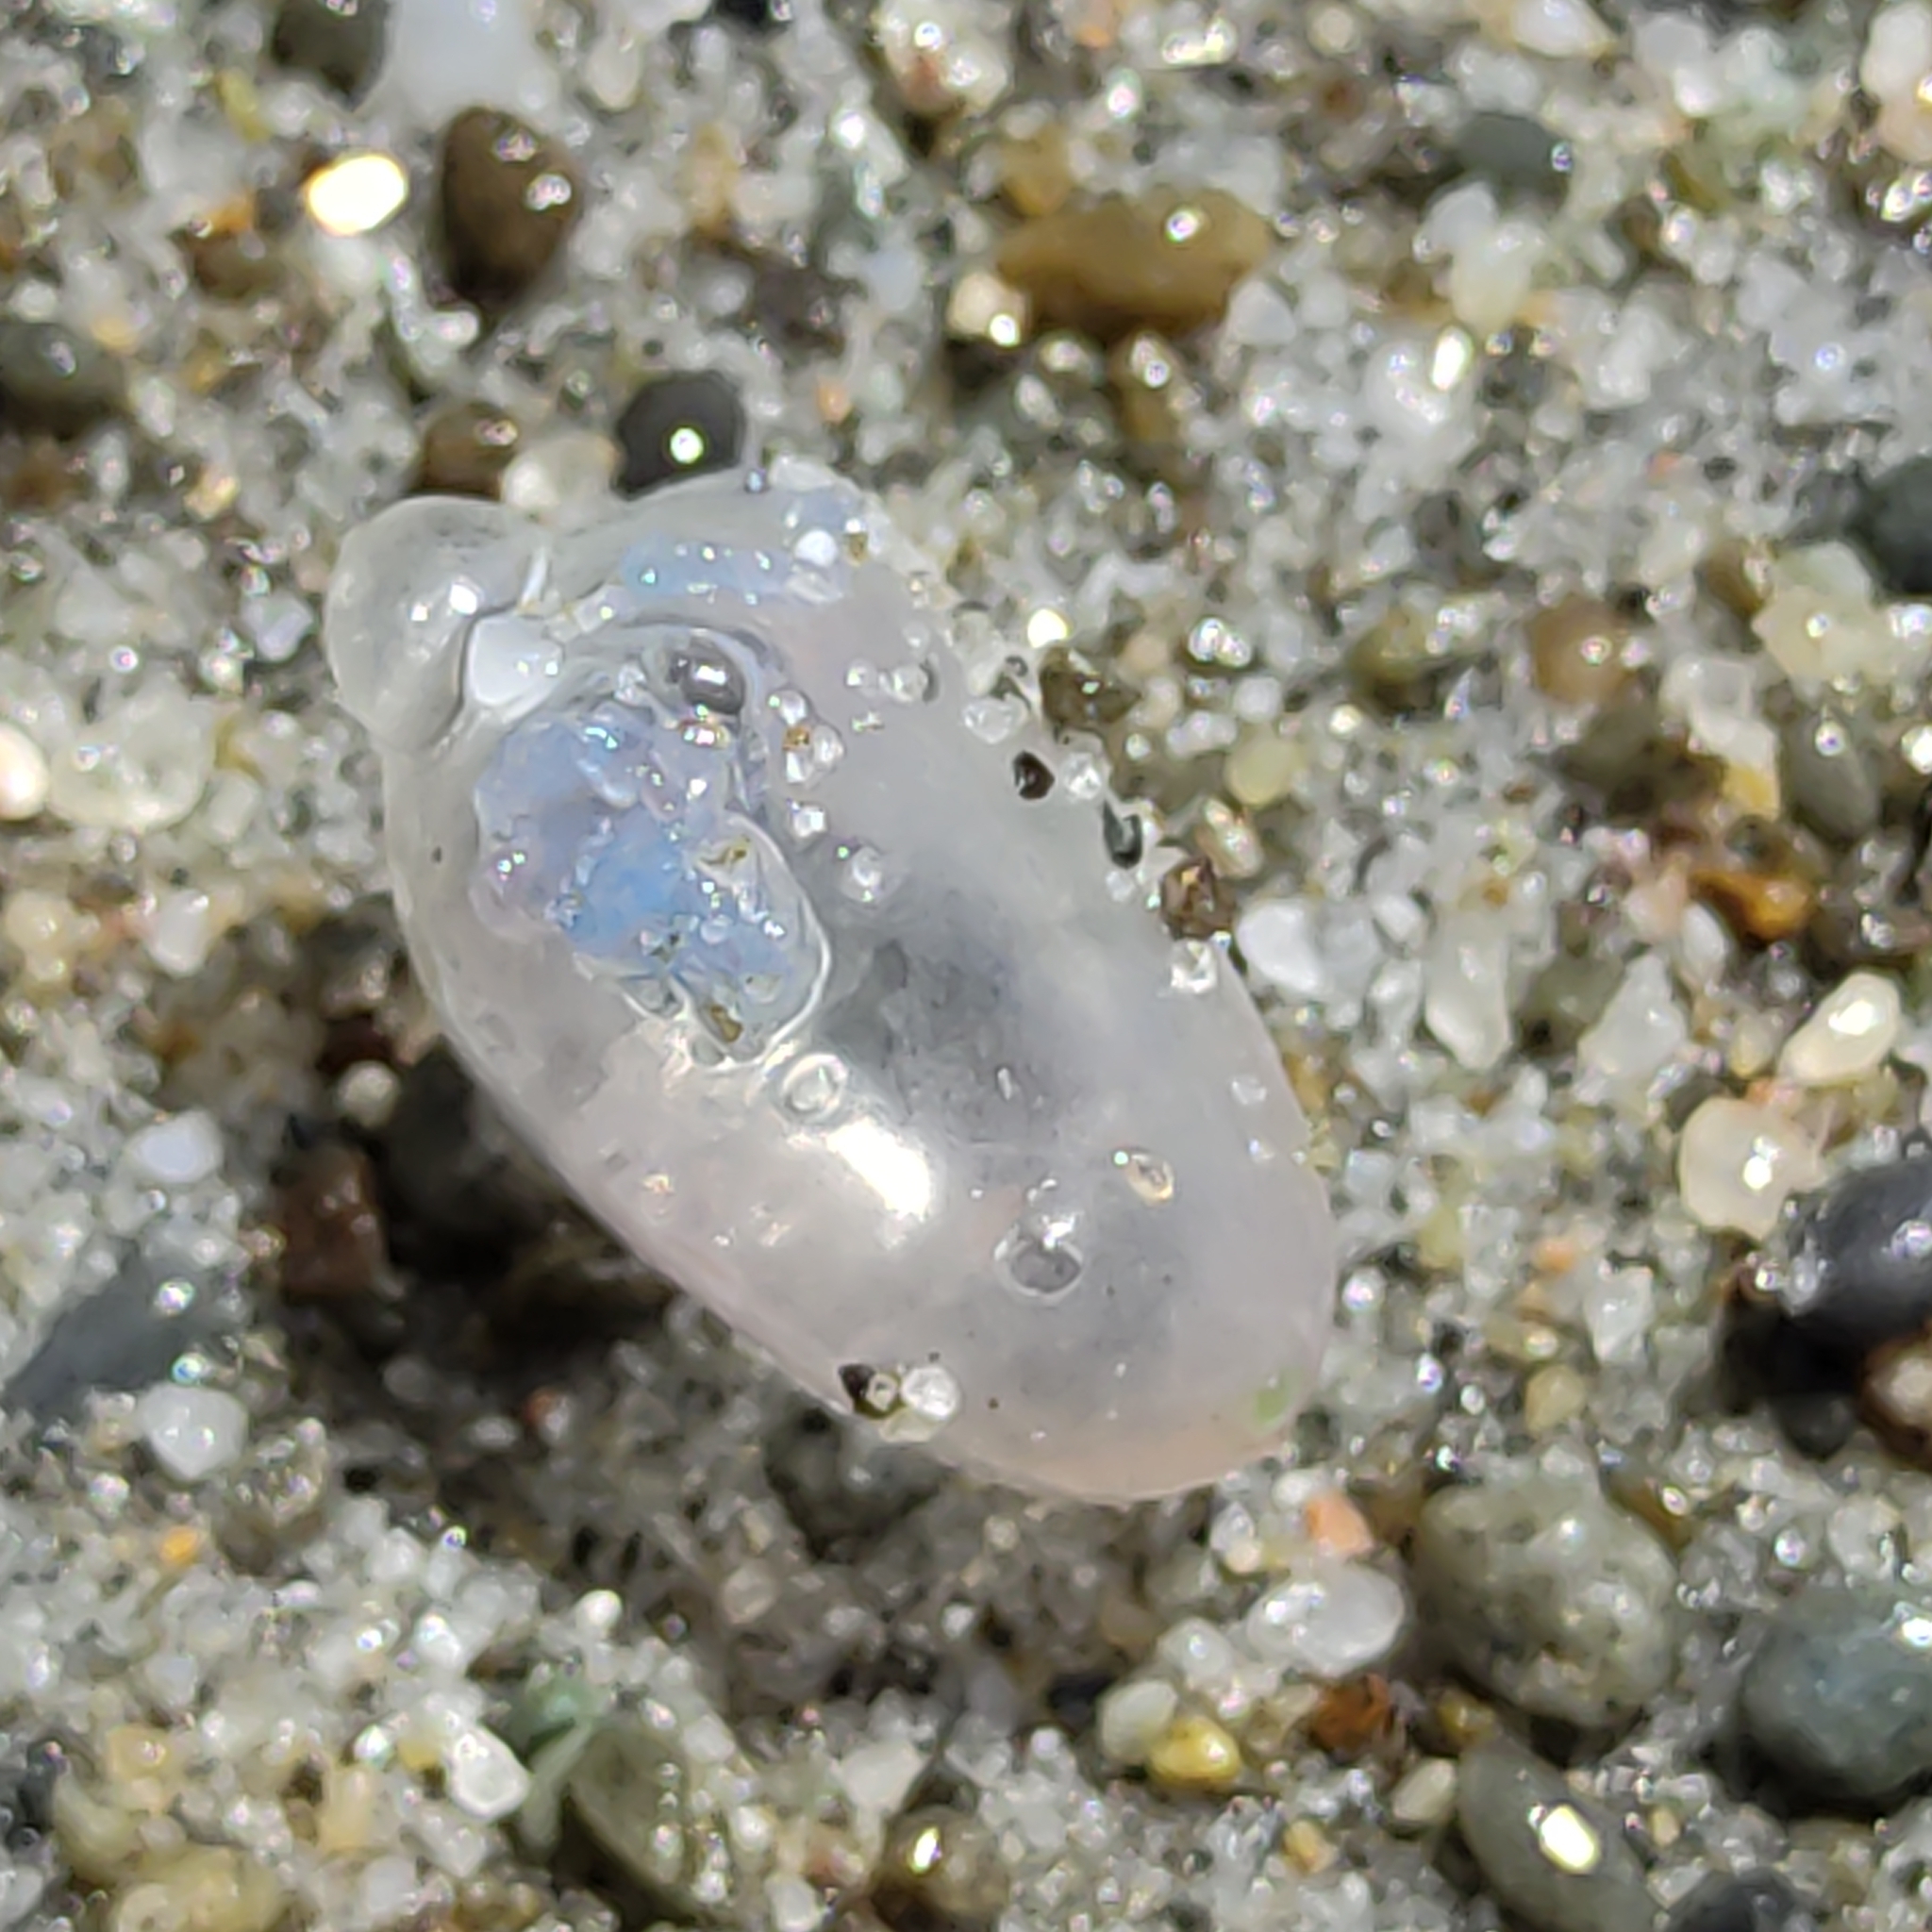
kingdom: Animalia
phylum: Cnidaria
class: Hydrozoa
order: Siphonophorae
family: Physaliidae
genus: Physalia
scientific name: Physalia physalis
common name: Portuguese man-of-war
